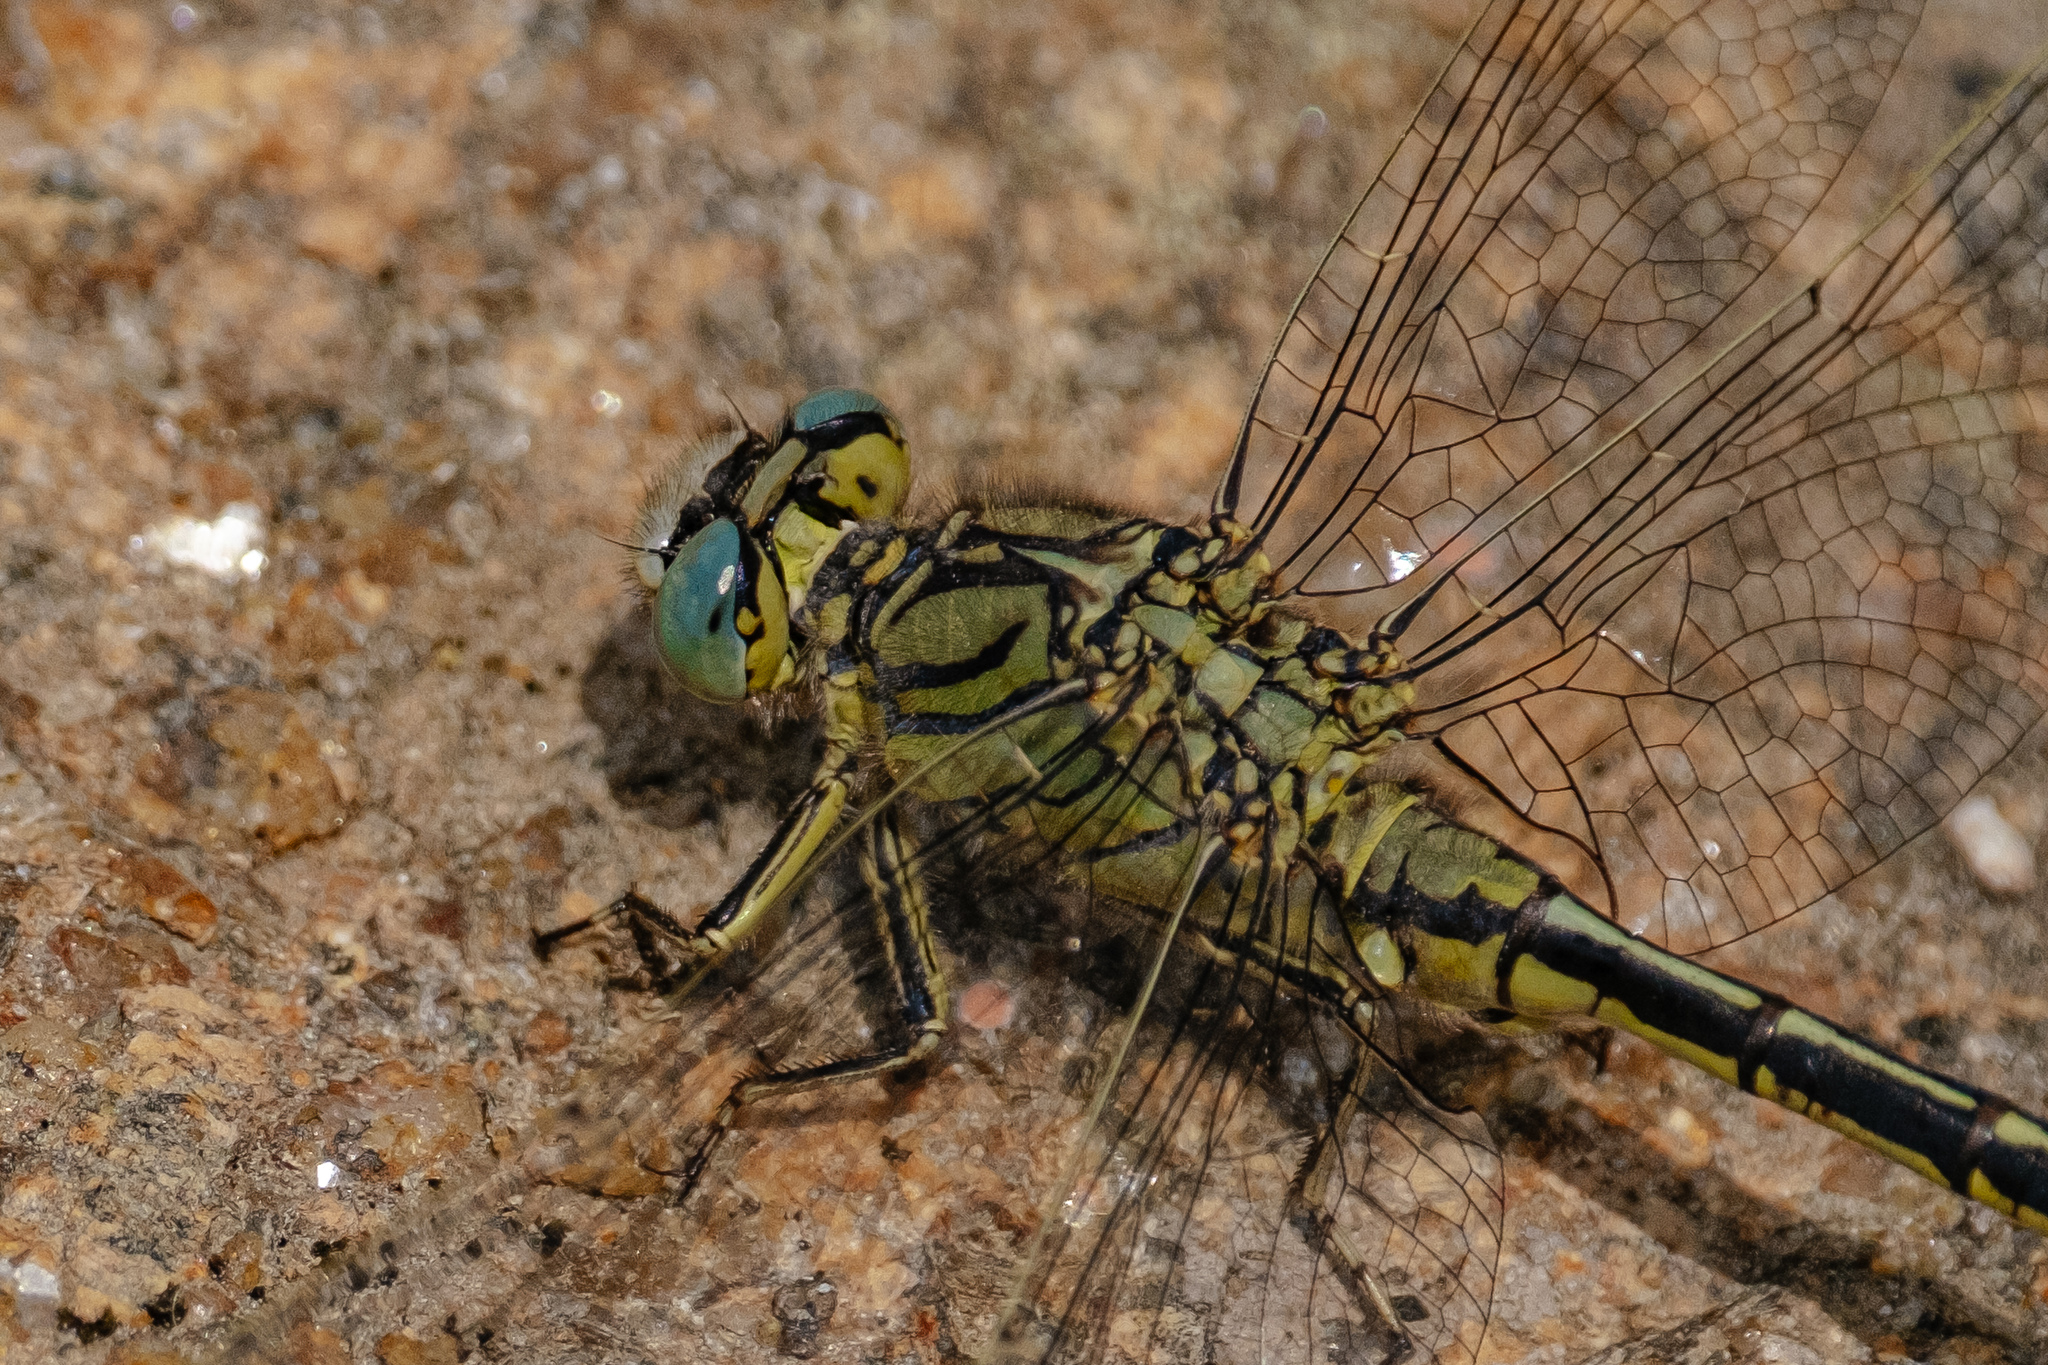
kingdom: Animalia
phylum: Arthropoda
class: Insecta
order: Odonata
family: Gomphidae
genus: Gomphus
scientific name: Gomphus pulchellus
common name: Western clubtail
